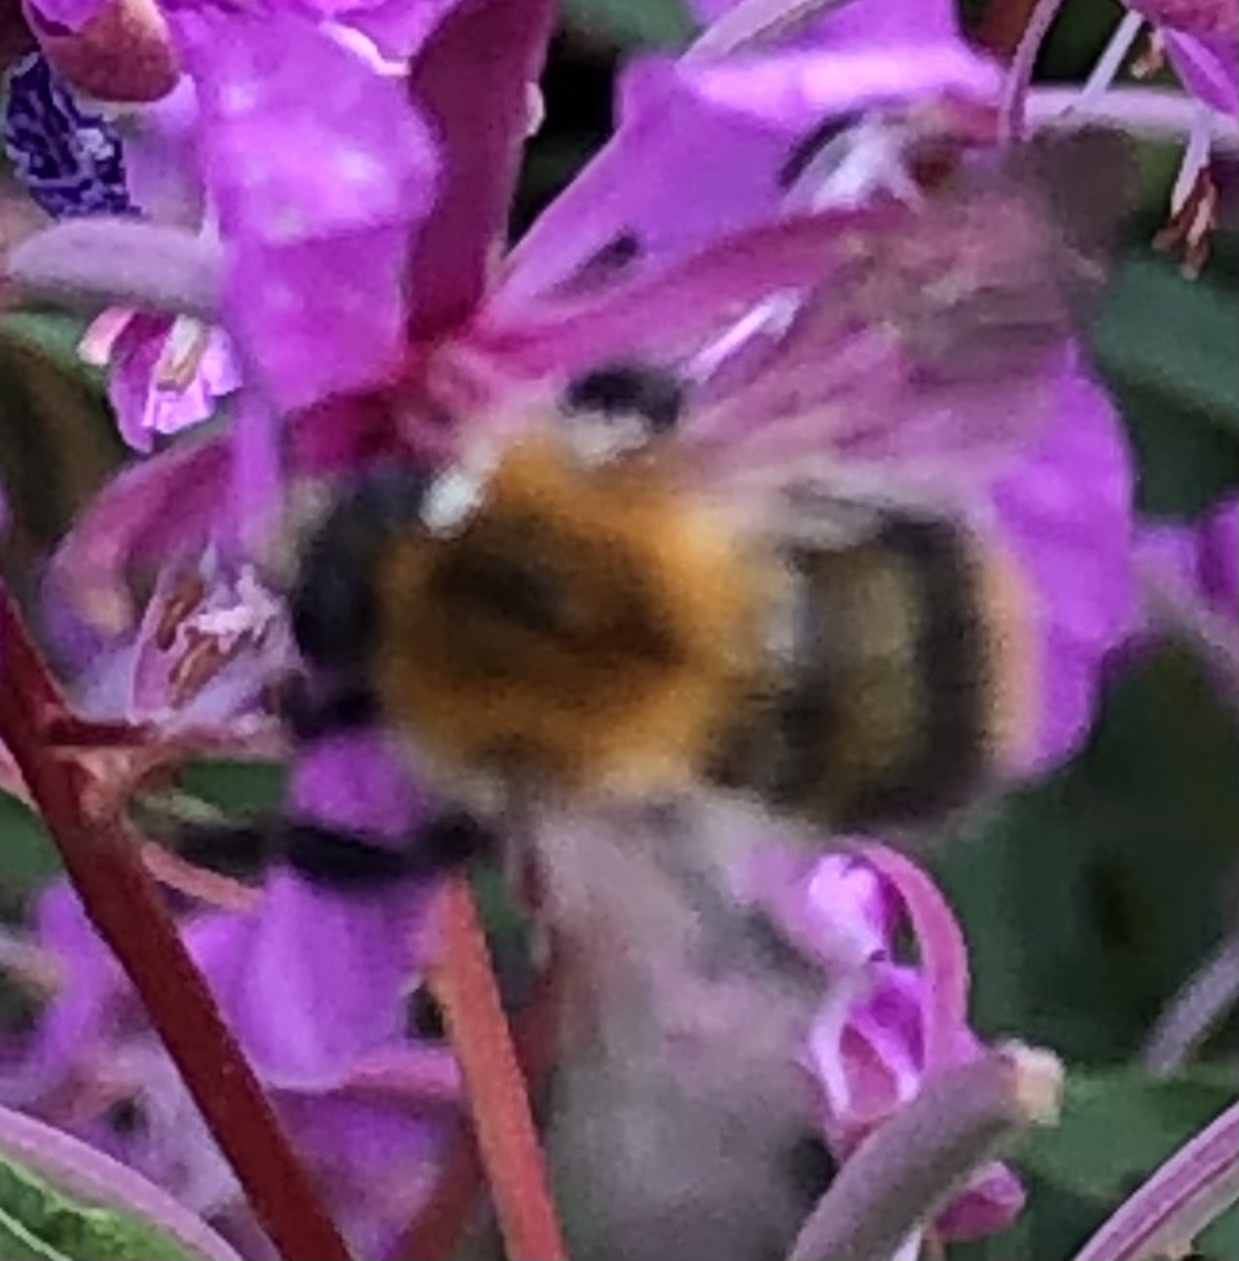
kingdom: Animalia
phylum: Arthropoda
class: Insecta
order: Hymenoptera
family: Apidae
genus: Bombus
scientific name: Bombus pascuorum
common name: Common carder bee
